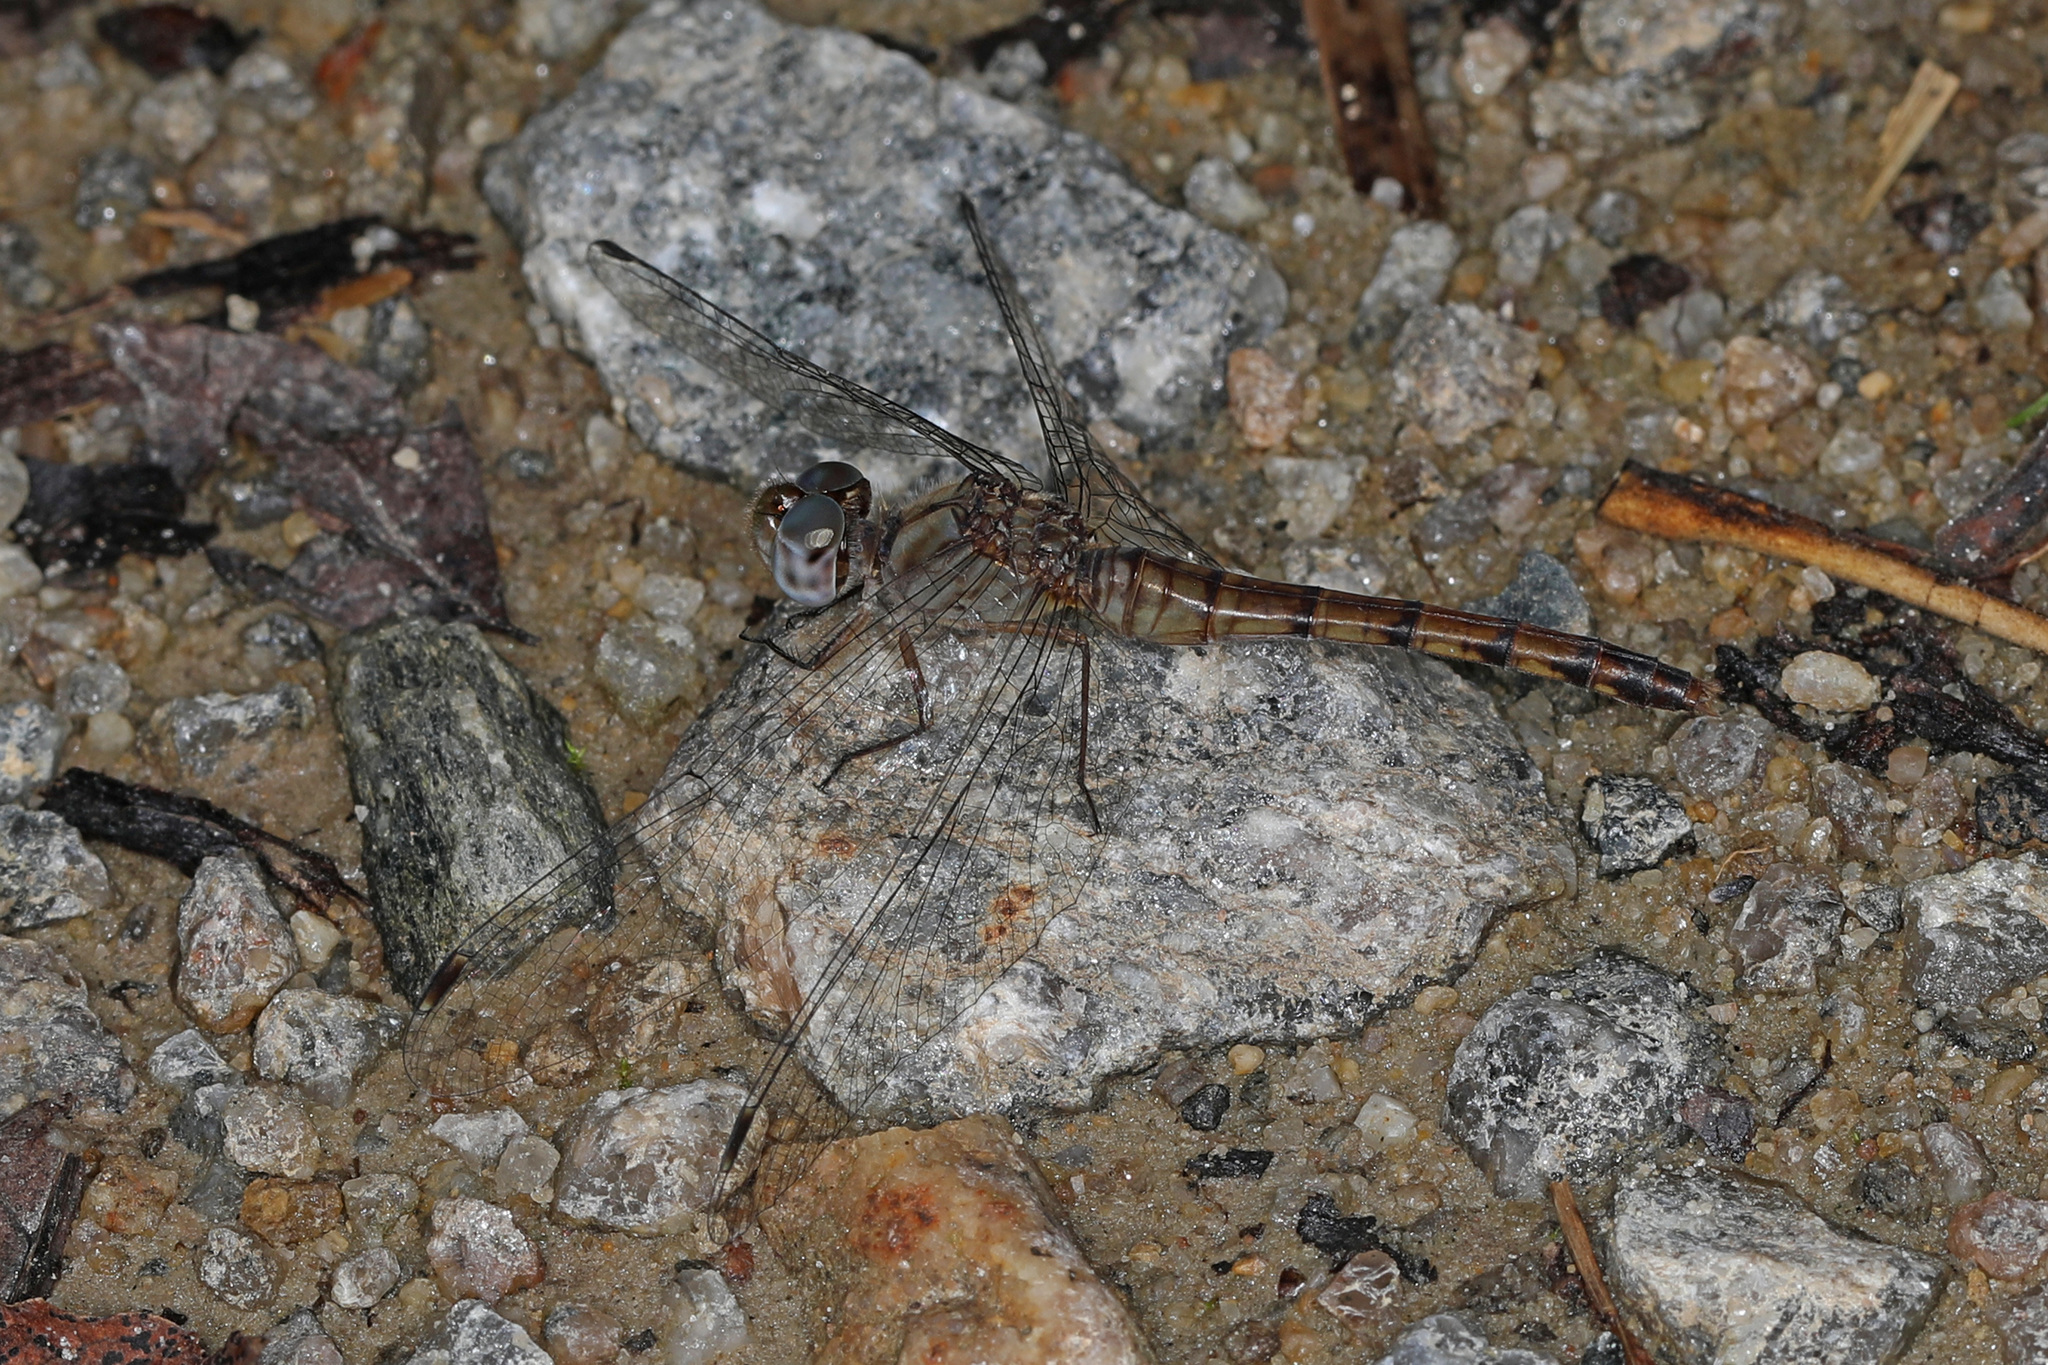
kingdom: Animalia
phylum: Arthropoda
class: Insecta
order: Odonata
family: Libellulidae
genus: Sympetrum
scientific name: Sympetrum ambiguum
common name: Blue-faced meadowhawk
